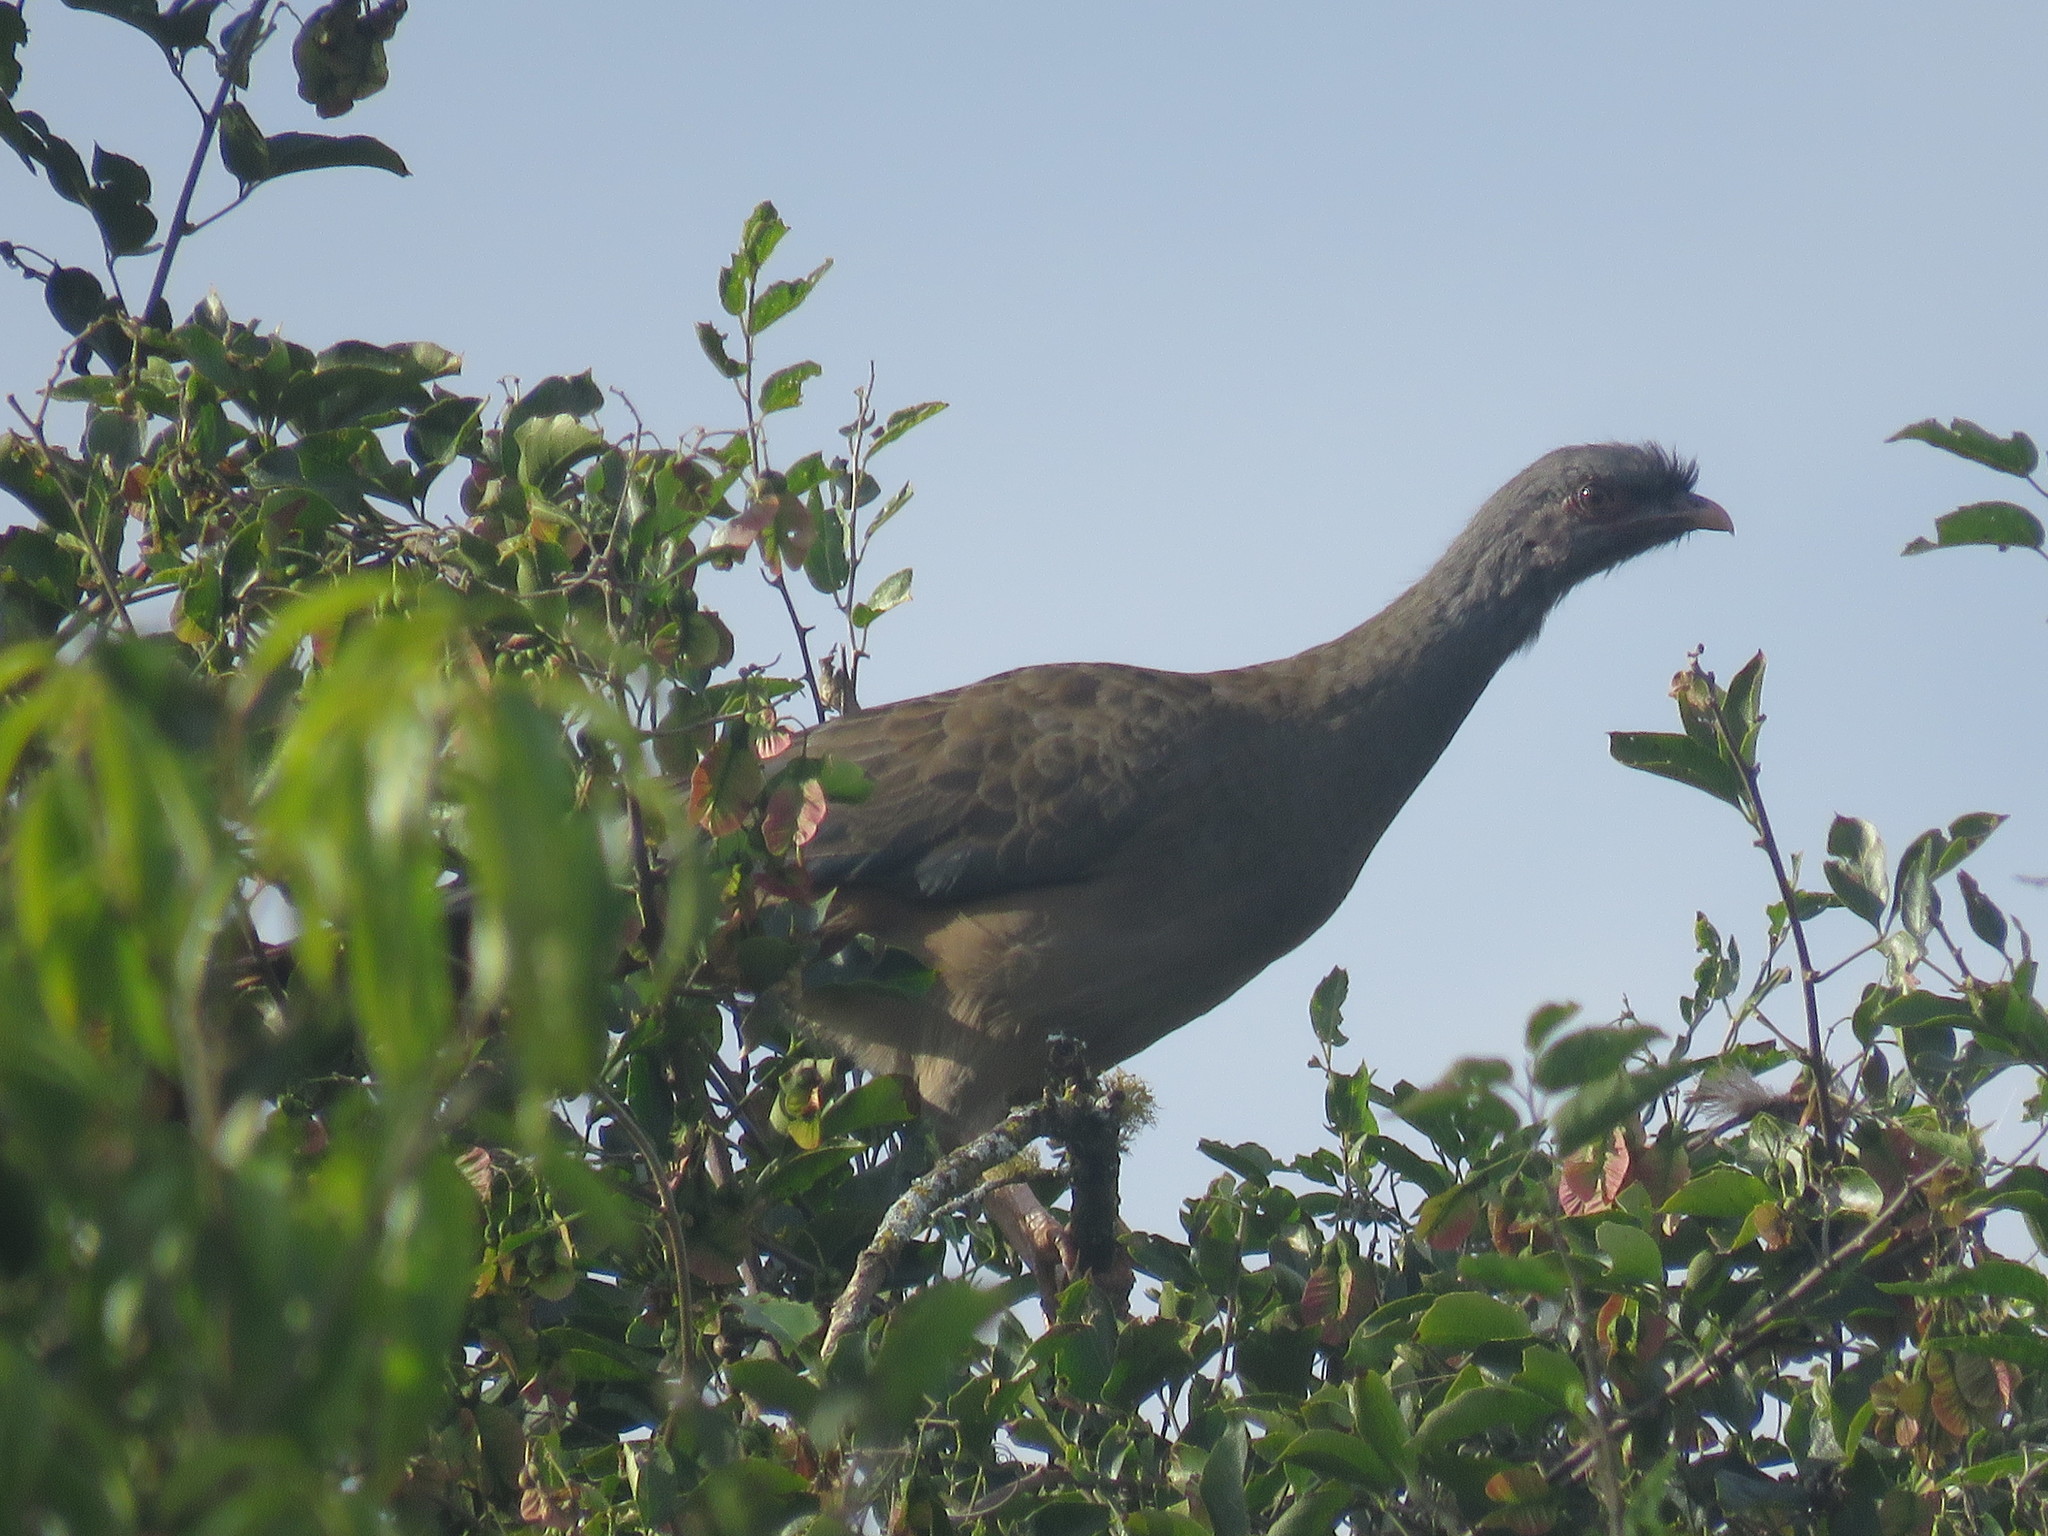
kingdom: Animalia
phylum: Chordata
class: Aves
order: Galliformes
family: Cracidae
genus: Ortalis
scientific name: Ortalis canicollis
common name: Chaco chachalaca
